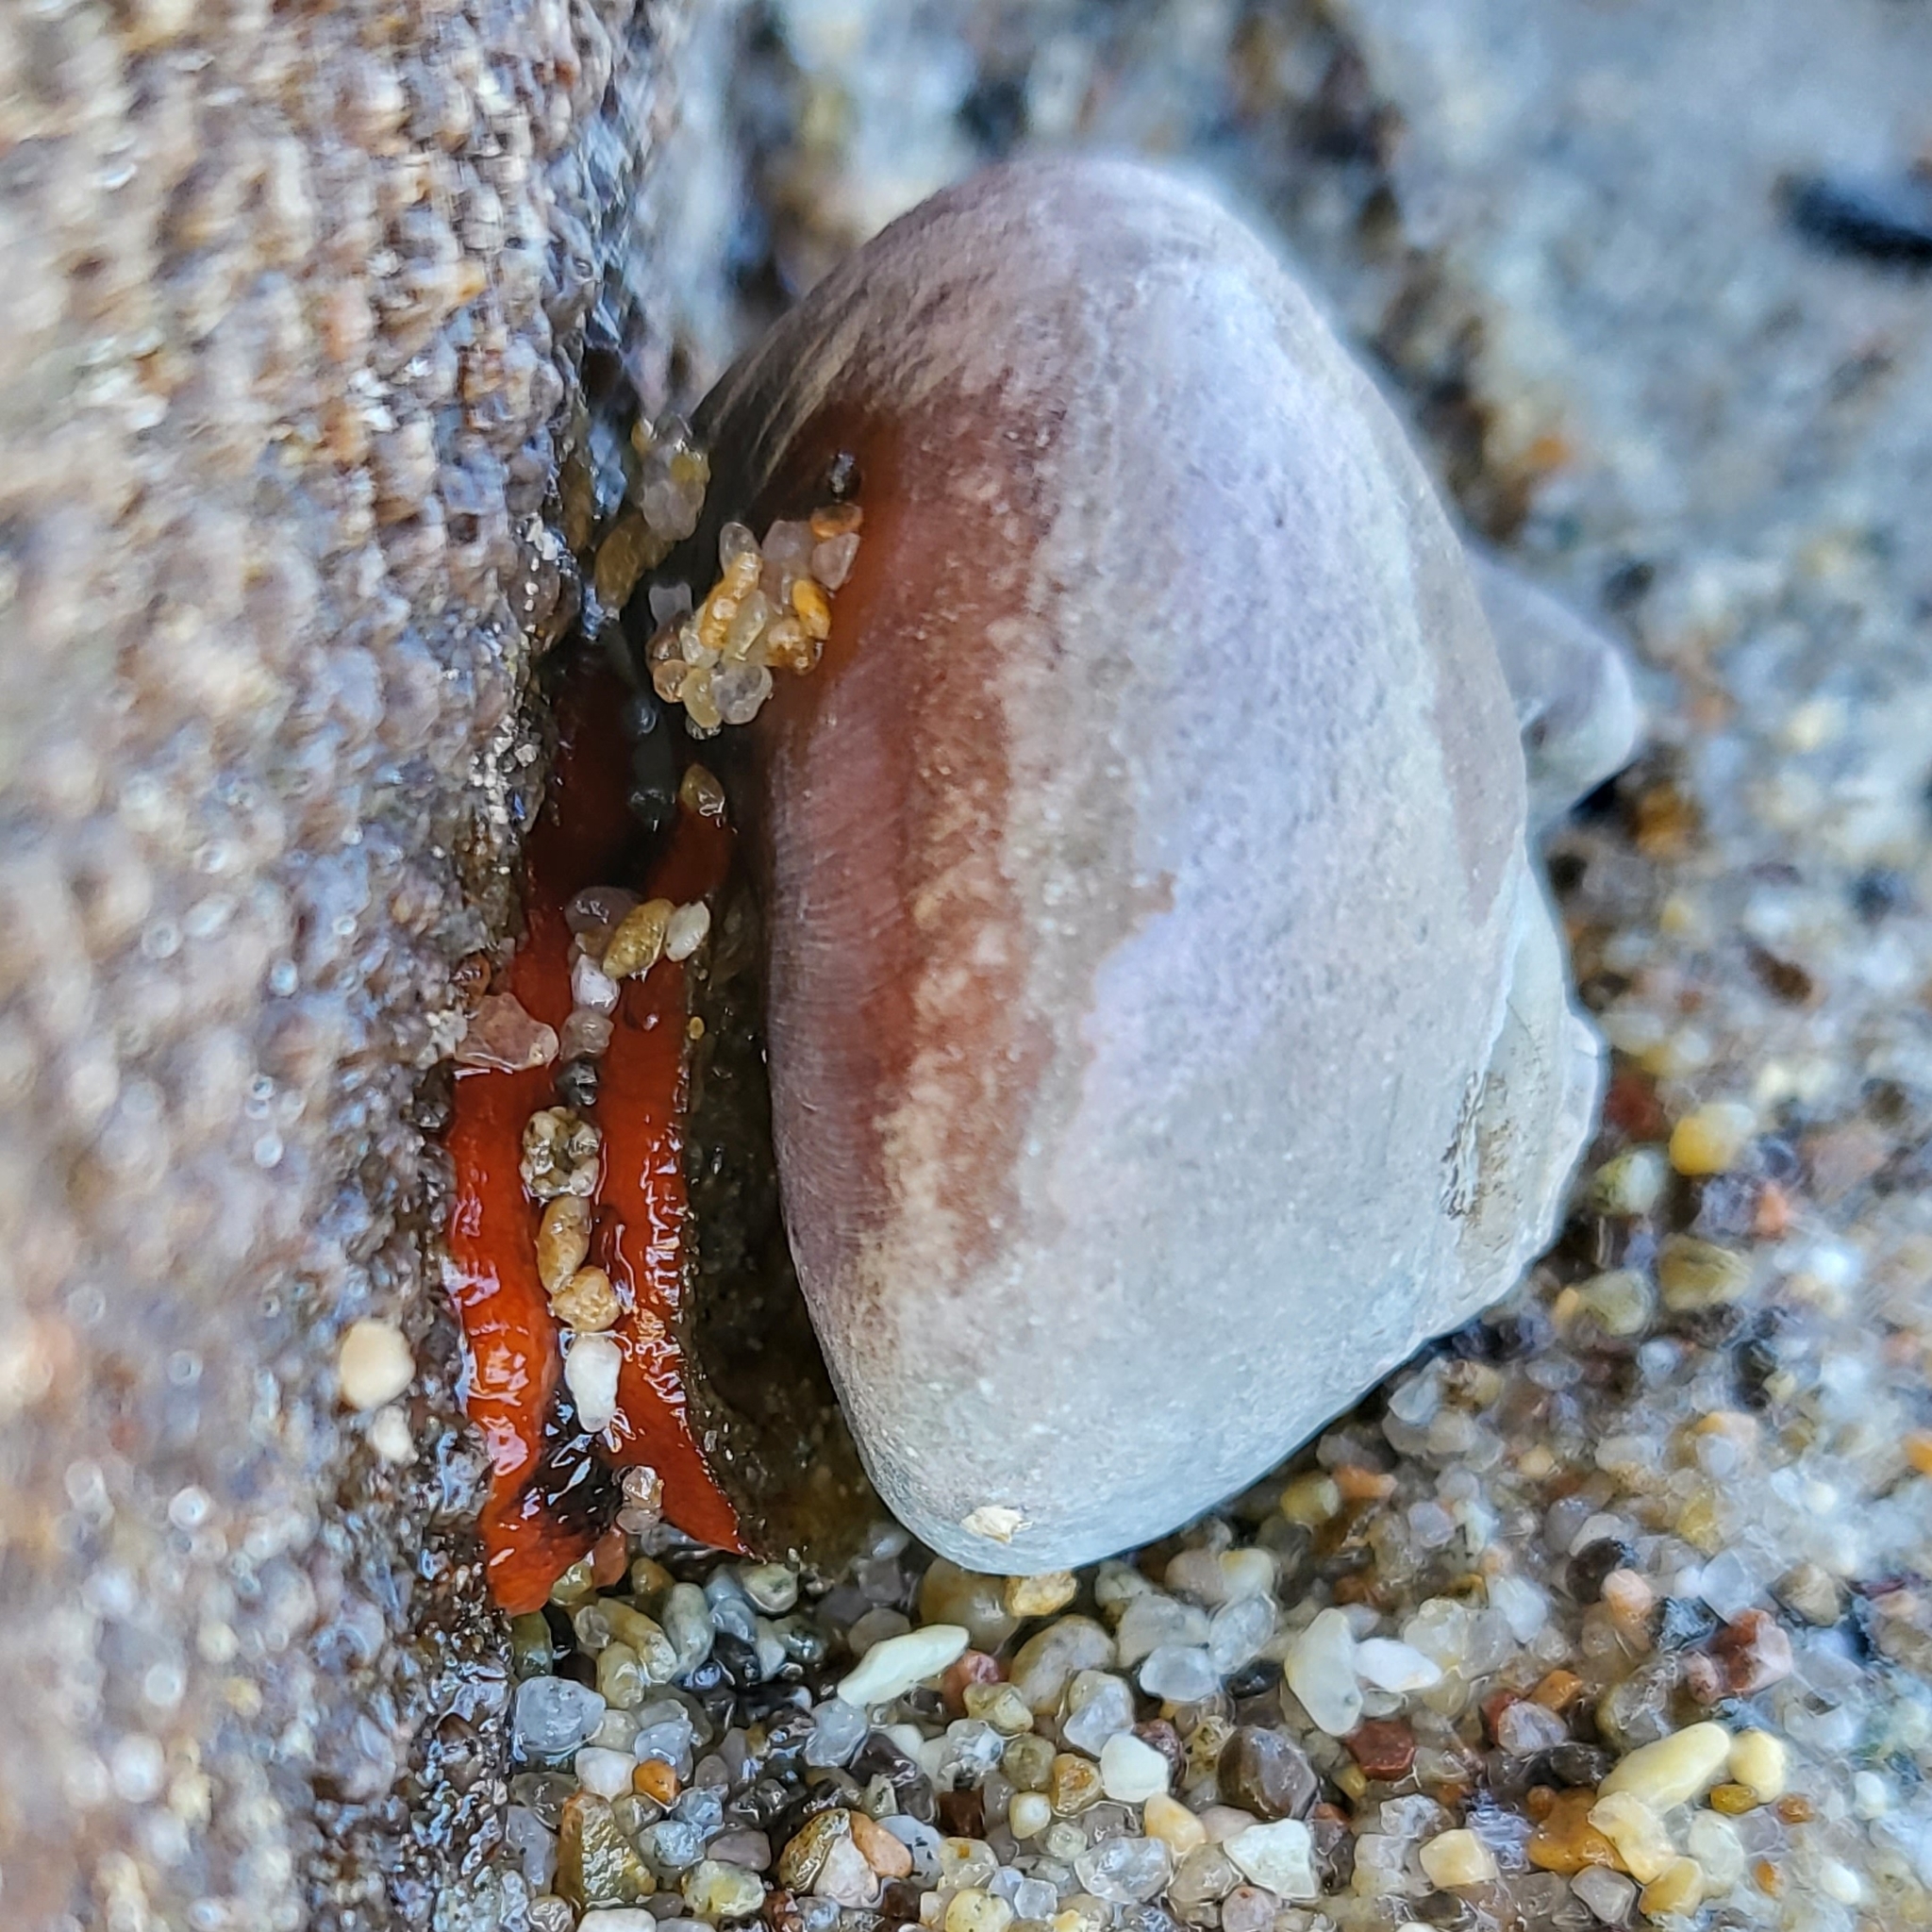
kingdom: Animalia
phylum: Mollusca
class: Gastropoda
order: Trochida
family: Tegulidae
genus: Norrisia
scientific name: Norrisia norrisii
